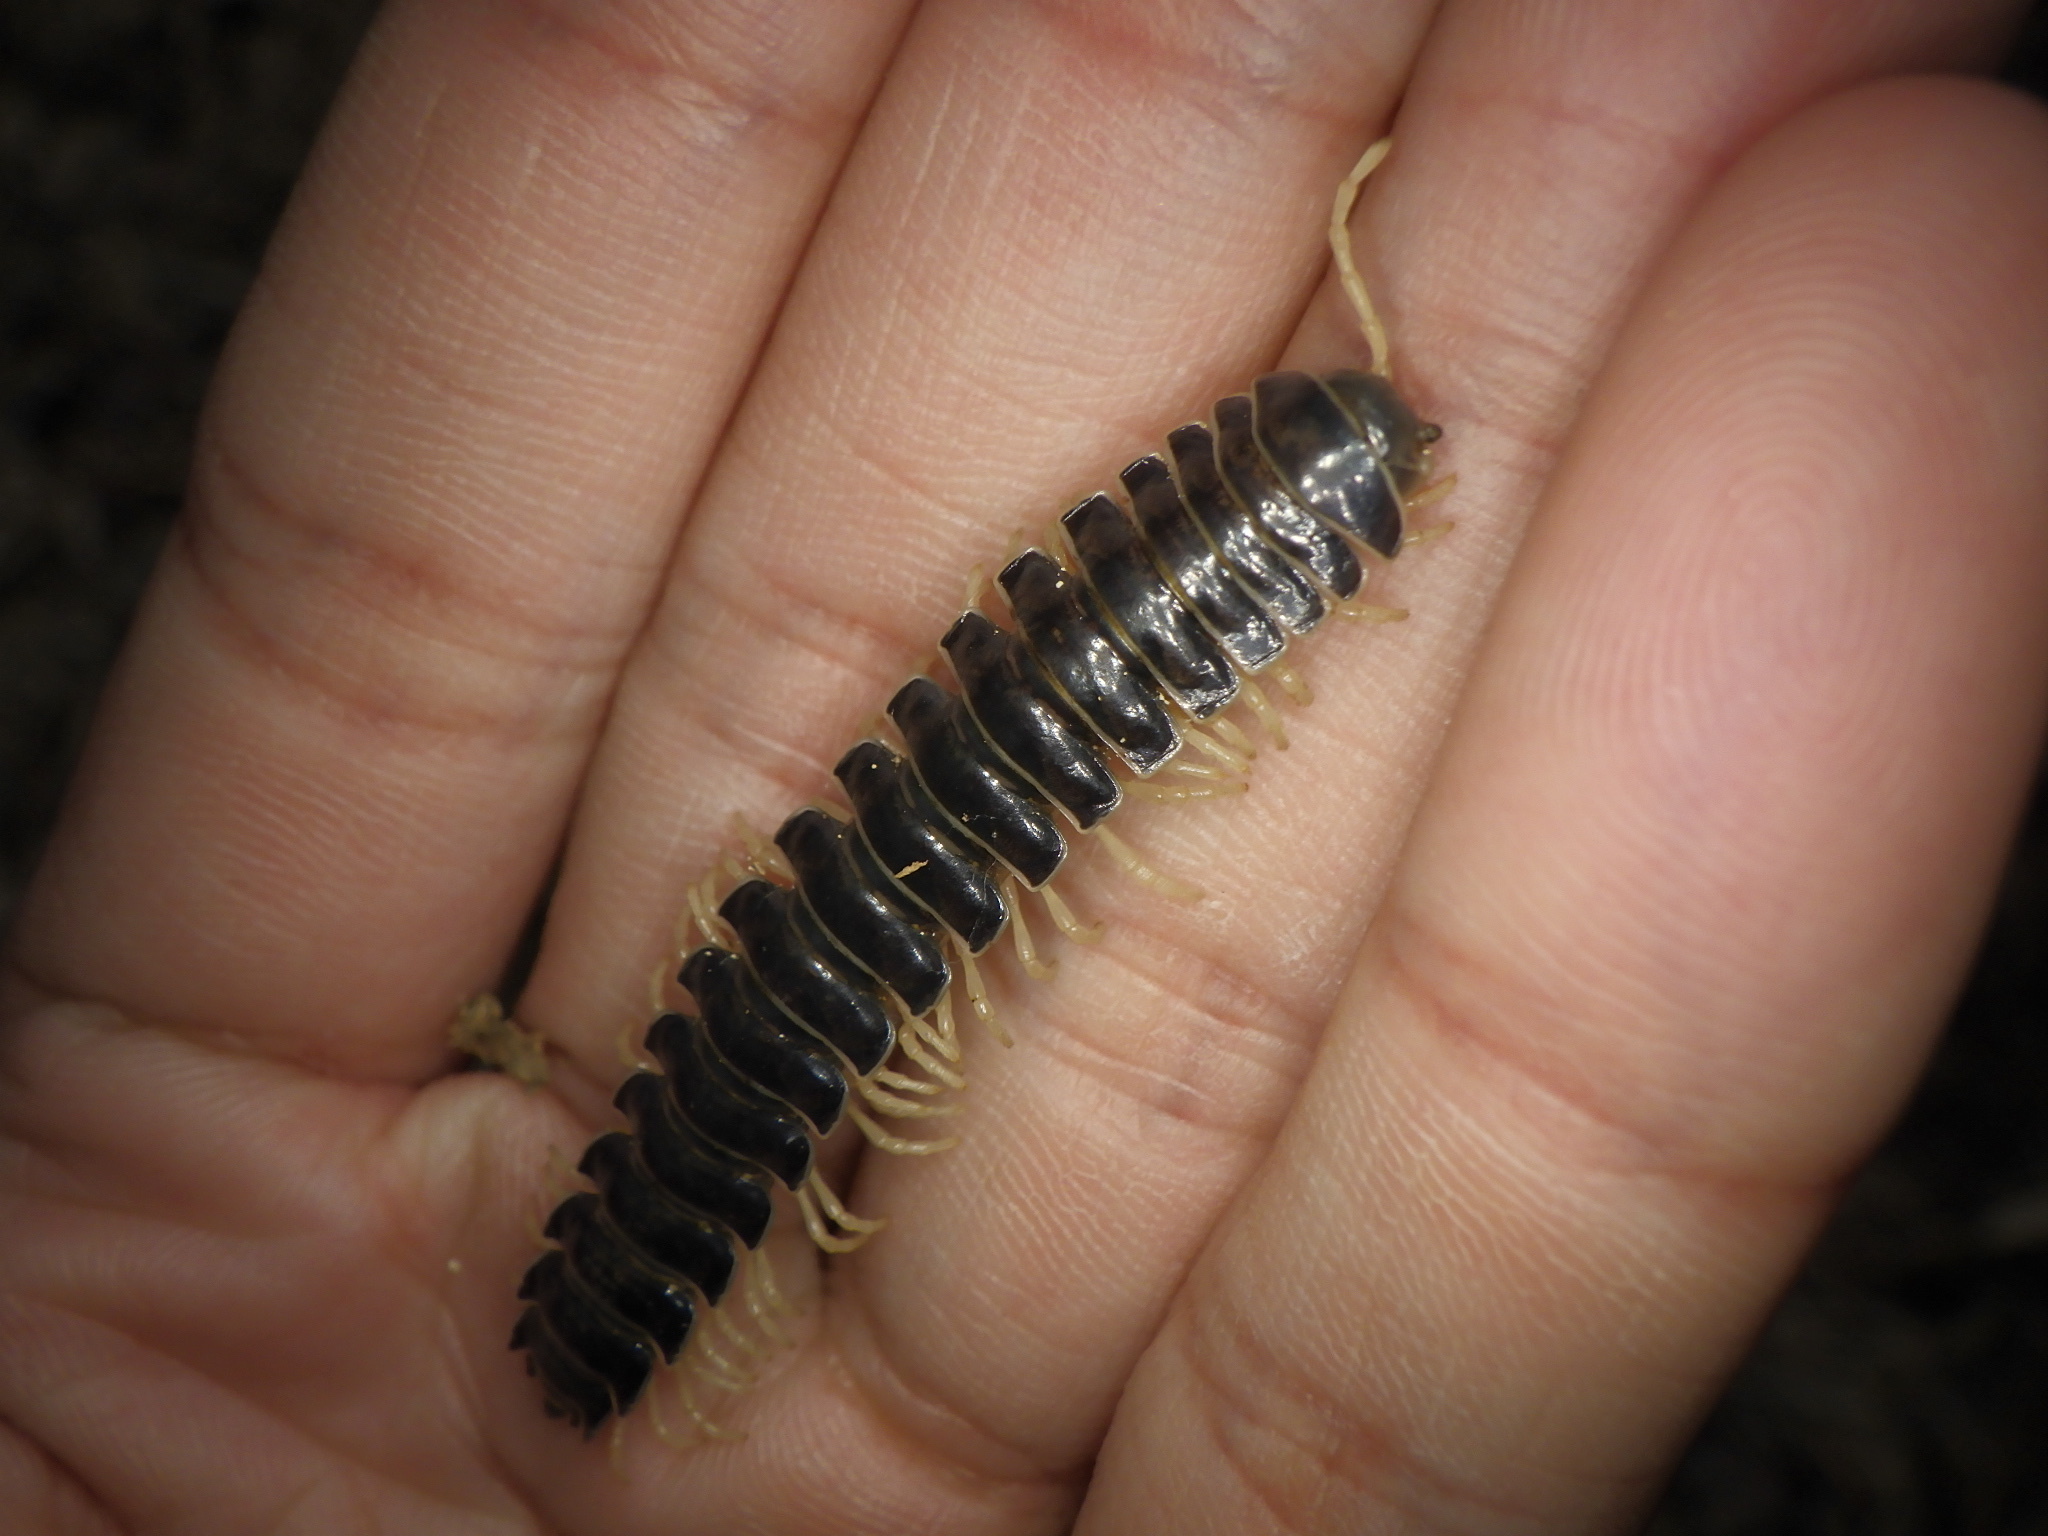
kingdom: Animalia
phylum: Arthropoda
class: Diplopoda
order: Polydesmida
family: Xystodesmidae
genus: Parafontaria
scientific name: Parafontaria tonominea
